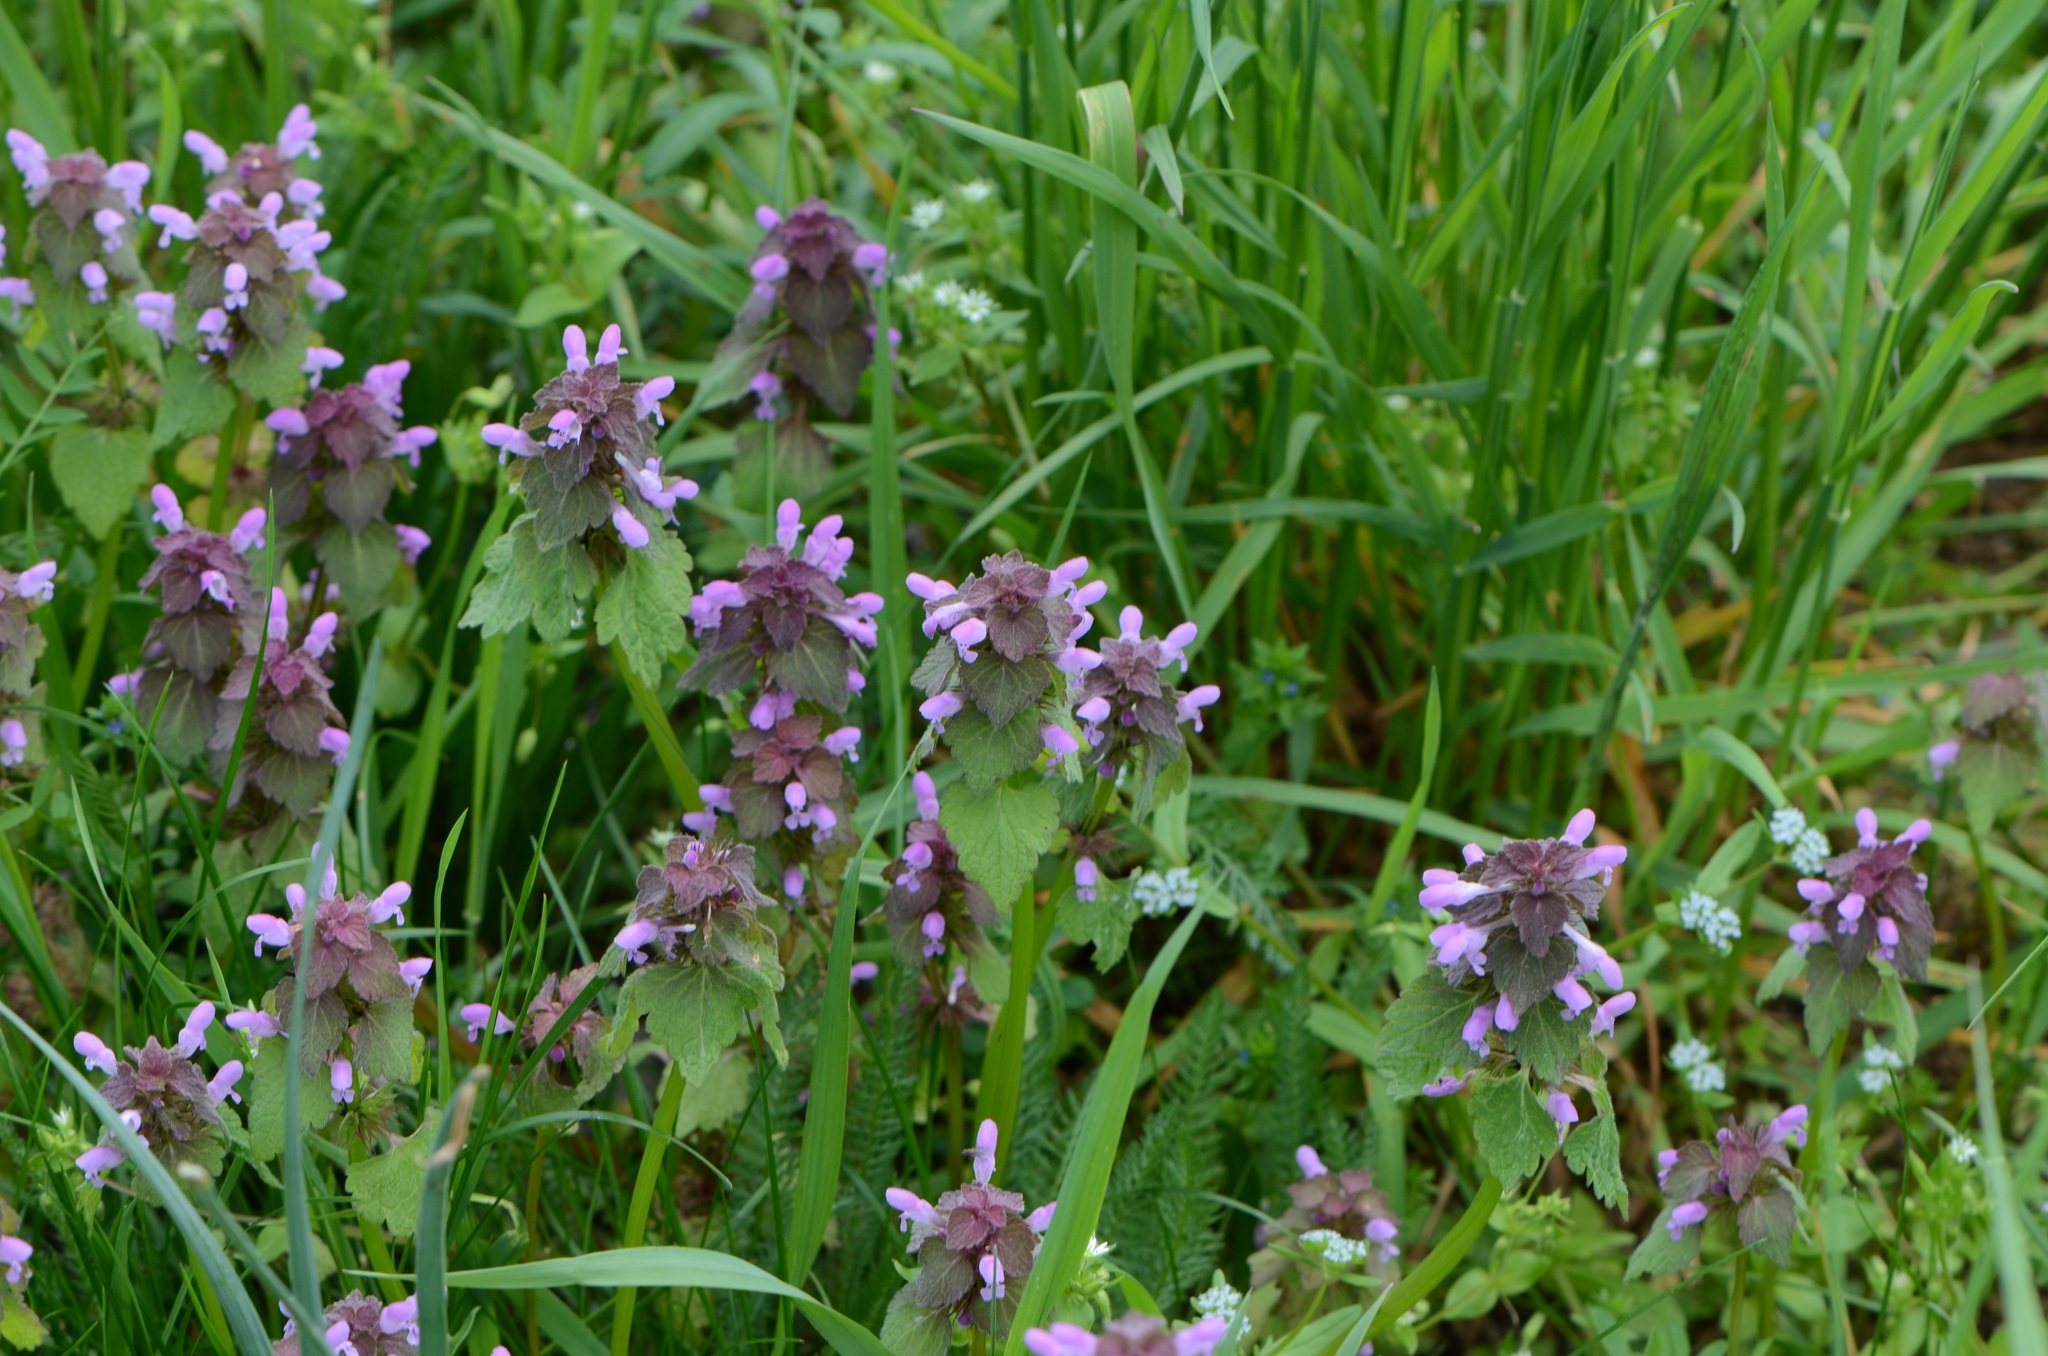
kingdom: Plantae
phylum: Tracheophyta
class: Magnoliopsida
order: Lamiales
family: Lamiaceae
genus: Lamium
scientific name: Lamium purpureum
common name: Red dead-nettle
